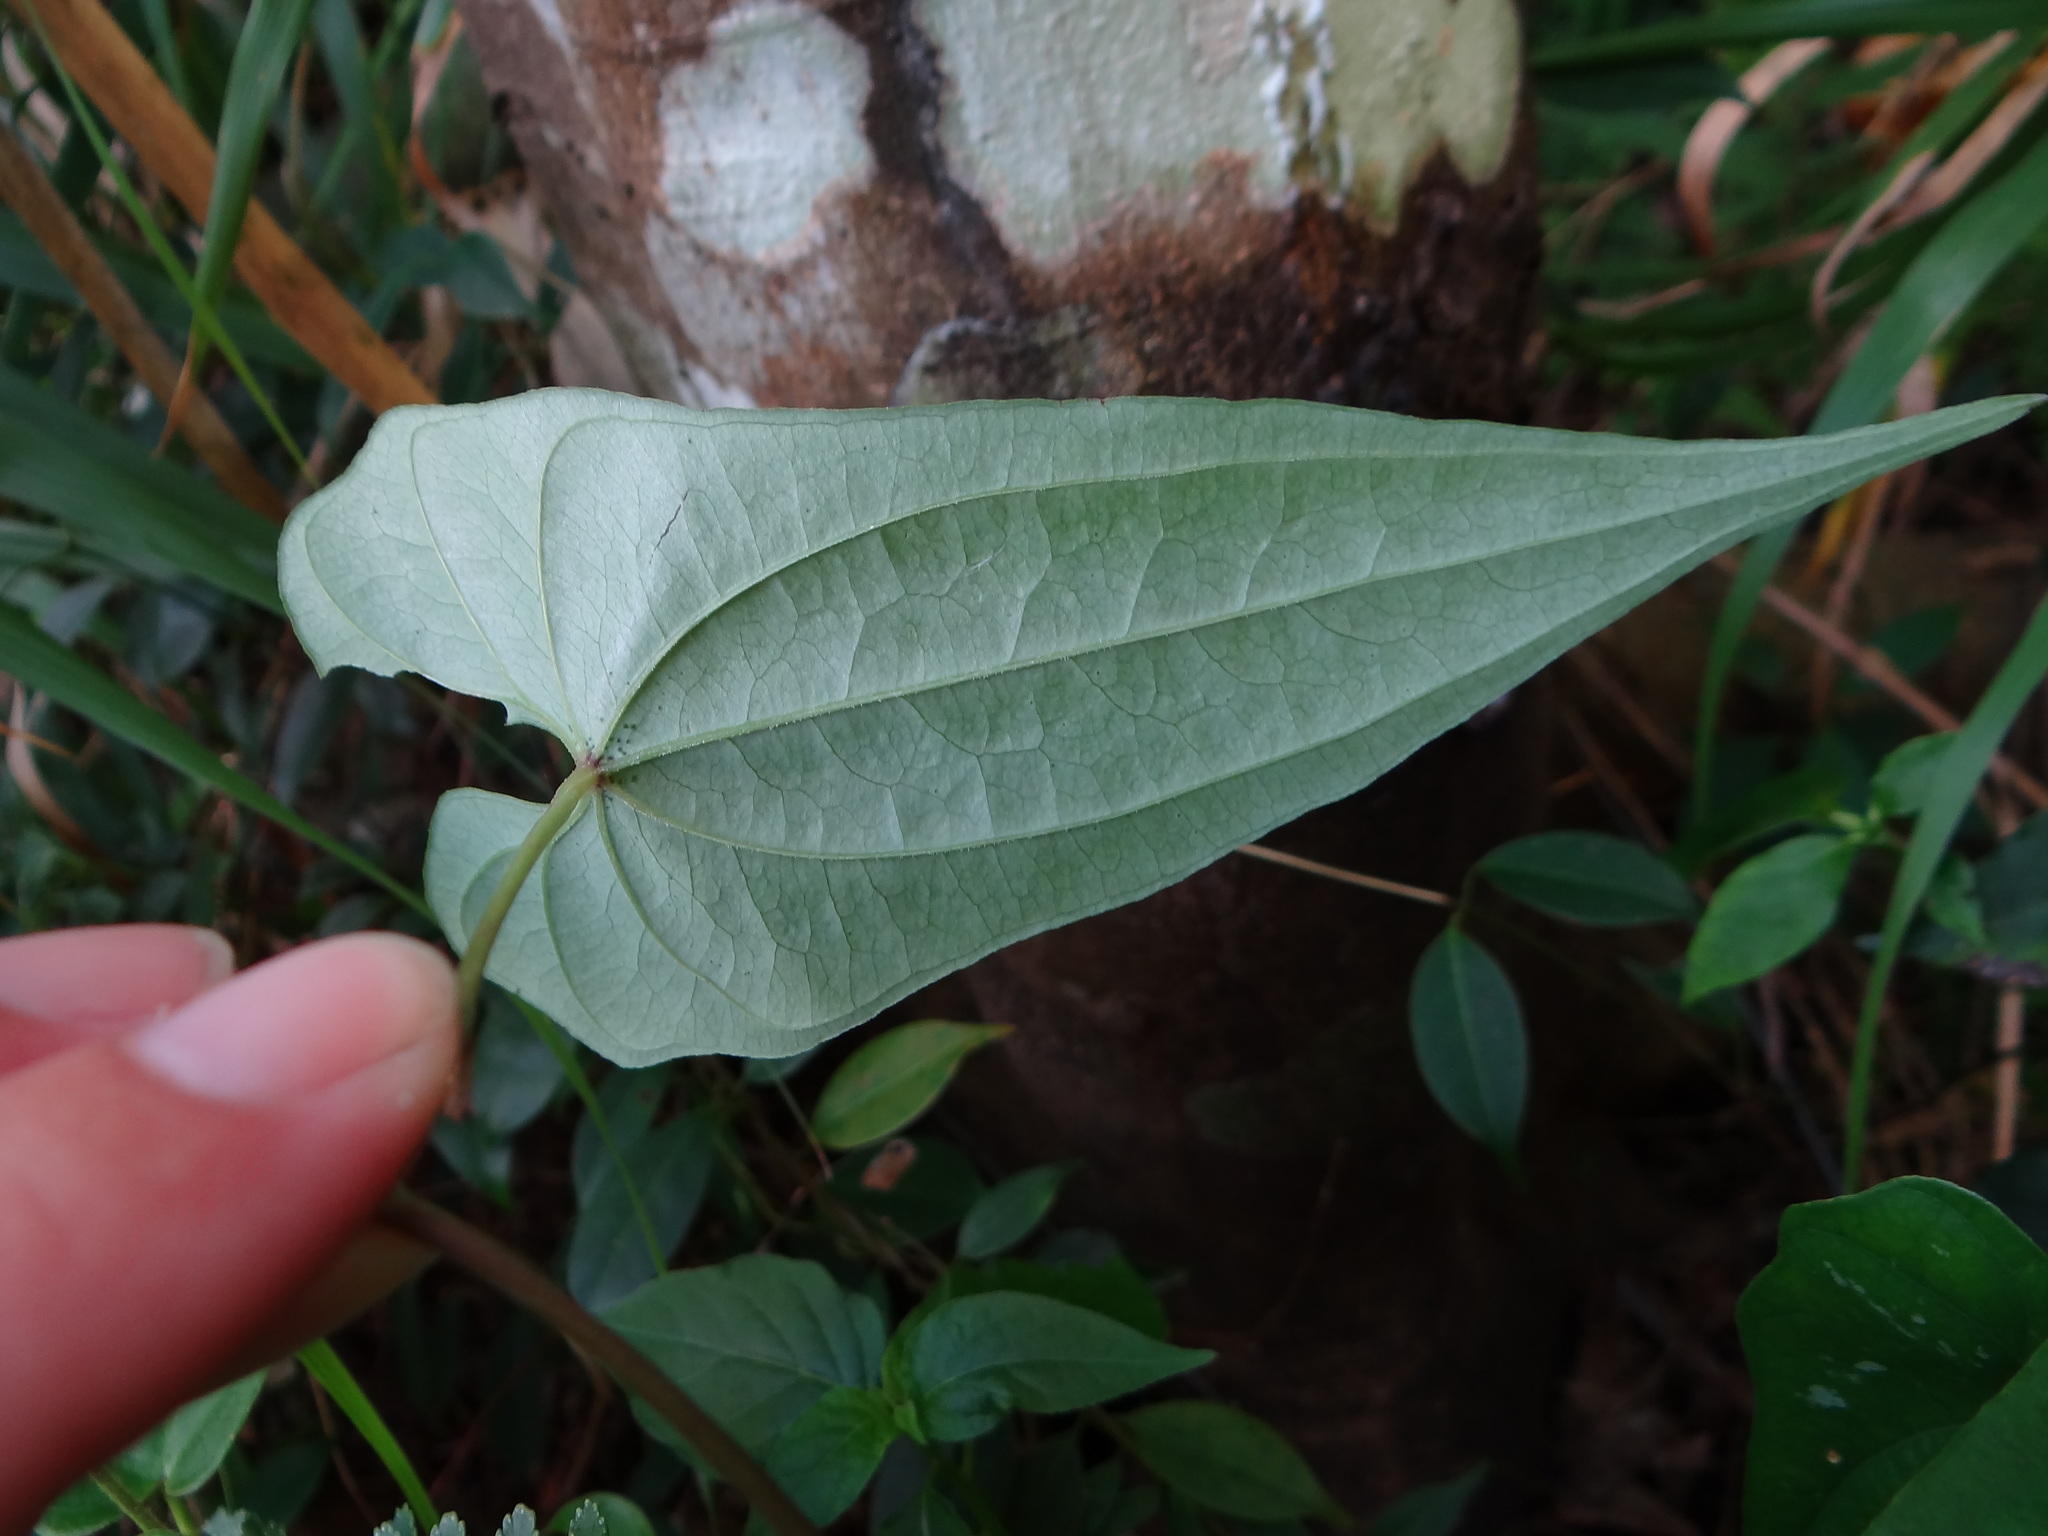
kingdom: Plantae
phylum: Tracheophyta
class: Liliopsida
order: Dioscoreales
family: Dioscoreaceae
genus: Dioscorea
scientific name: Dioscorea collettii
